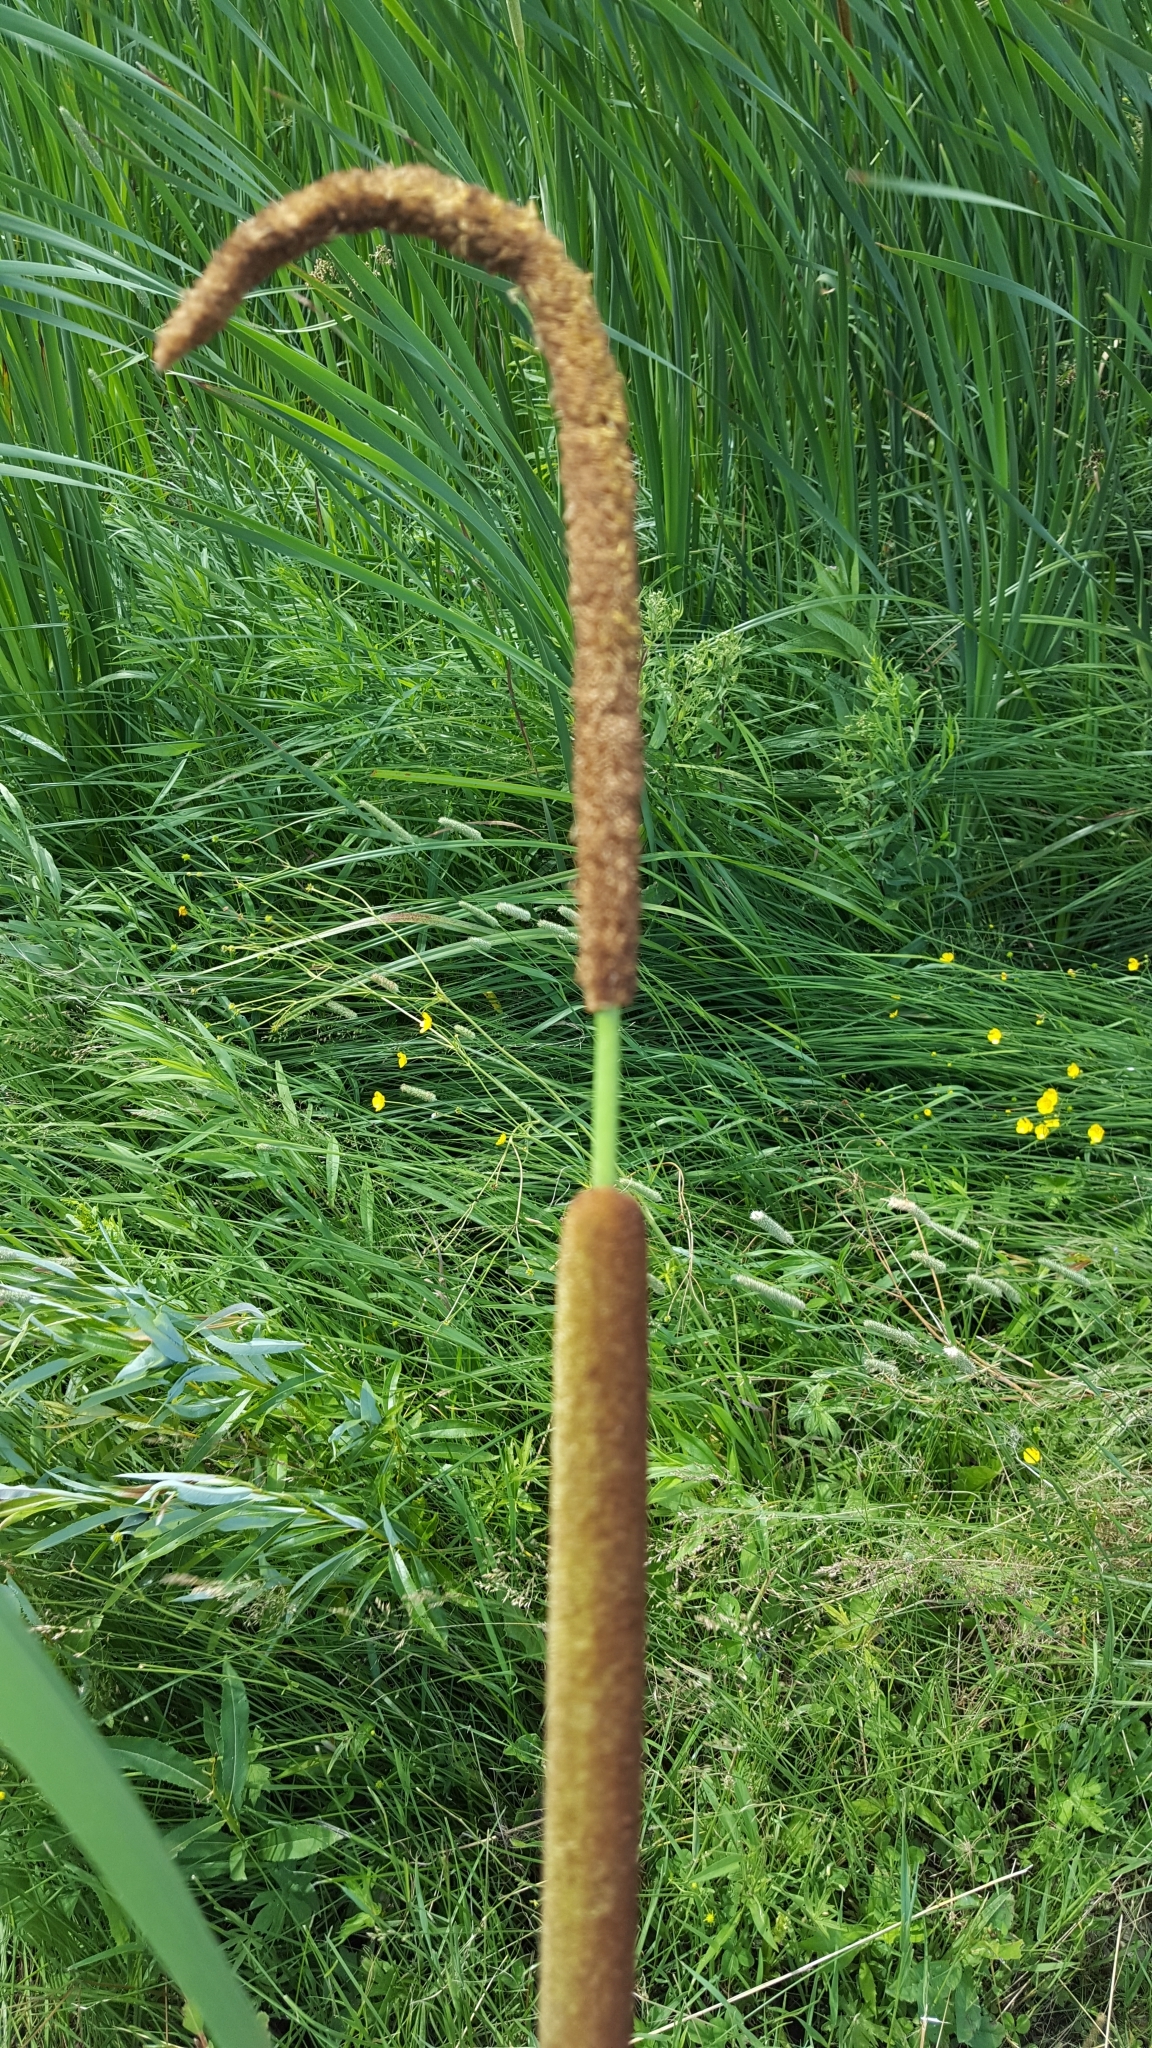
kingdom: Plantae
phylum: Tracheophyta
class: Liliopsida
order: Poales
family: Typhaceae
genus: Typha
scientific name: Typha angustifolia
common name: Lesser bulrush
